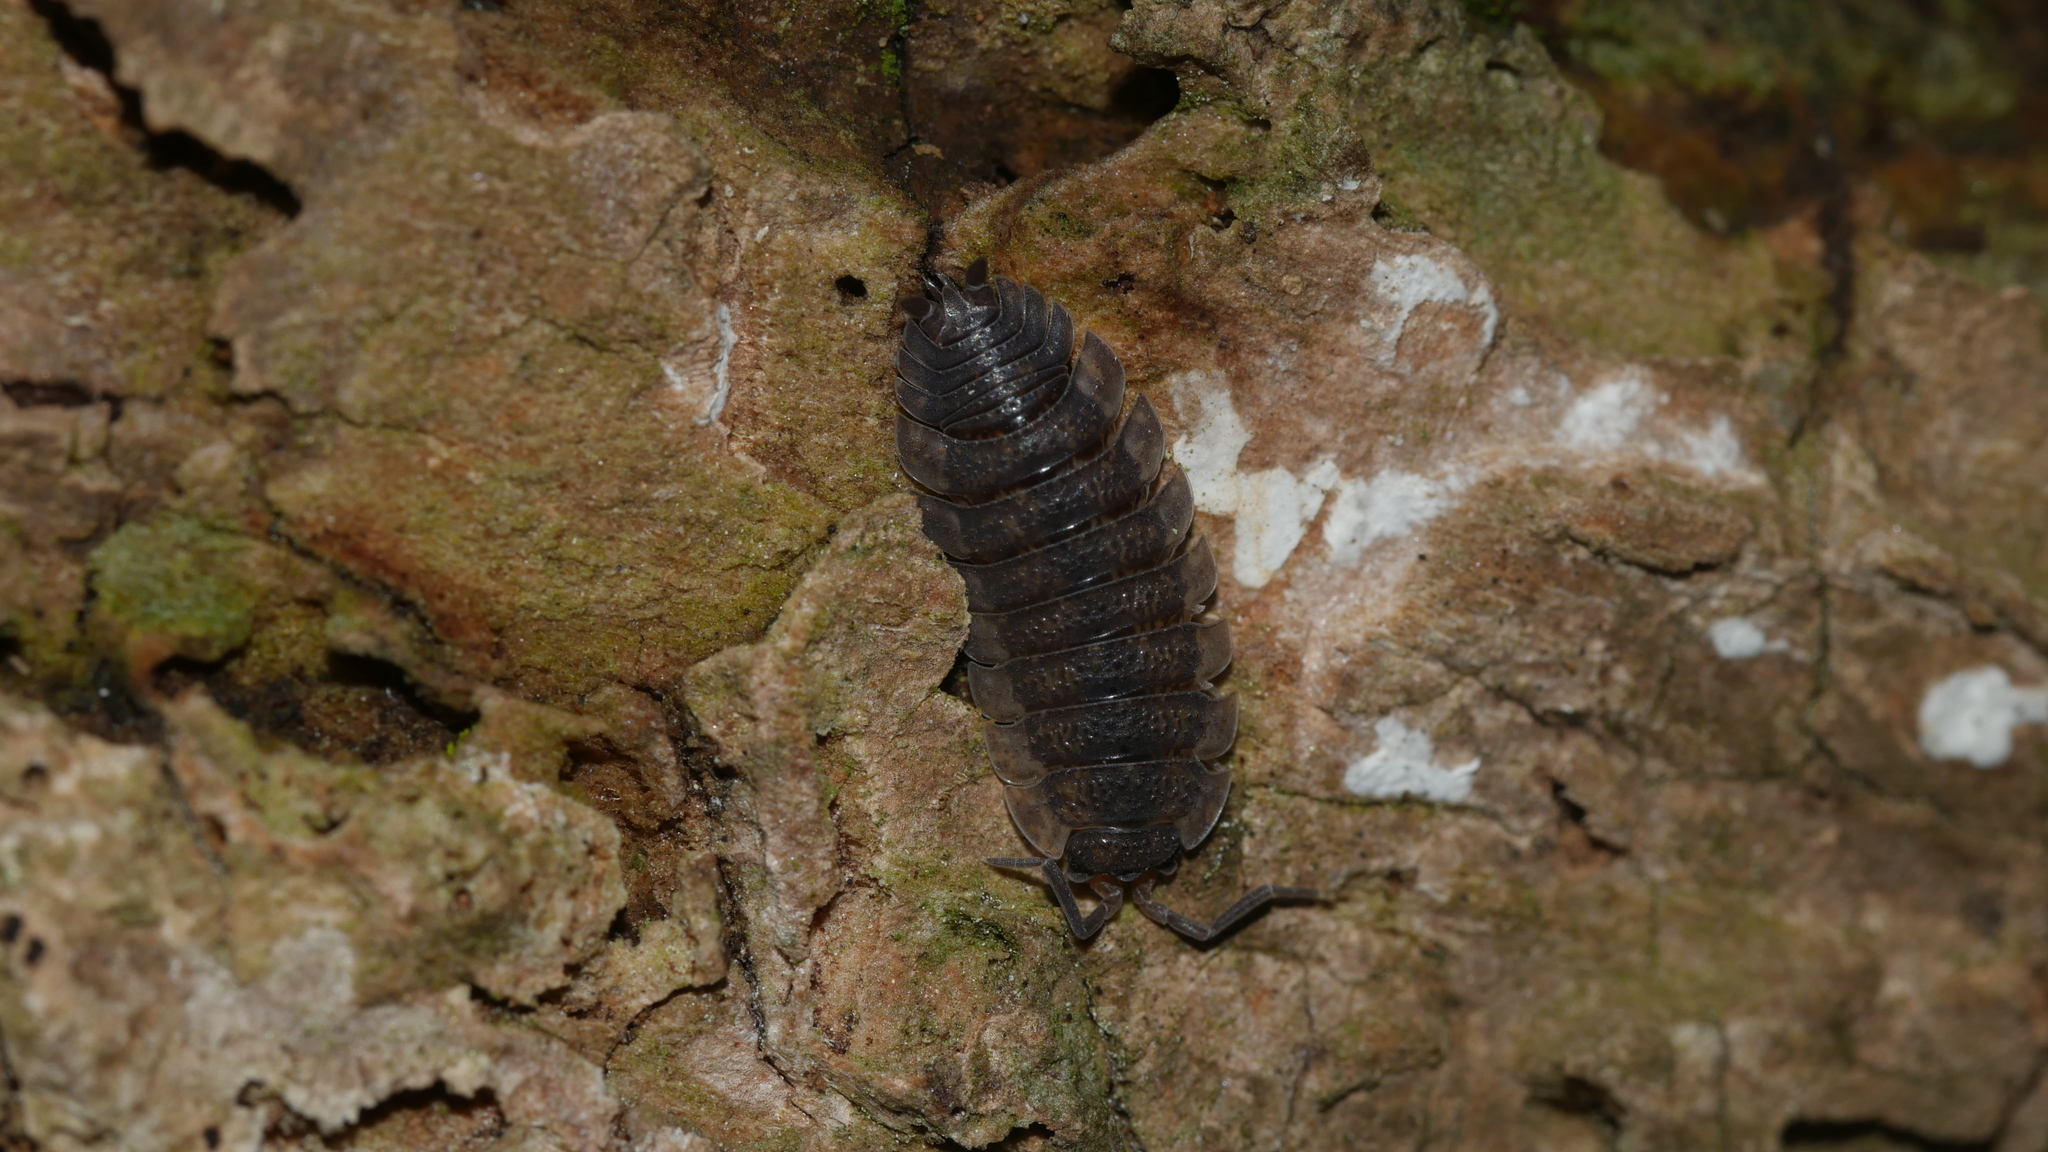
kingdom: Animalia
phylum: Arthropoda
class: Malacostraca
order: Isopoda
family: Porcellionidae
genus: Porcellio
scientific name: Porcellio scaber
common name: Common rough woodlouse
